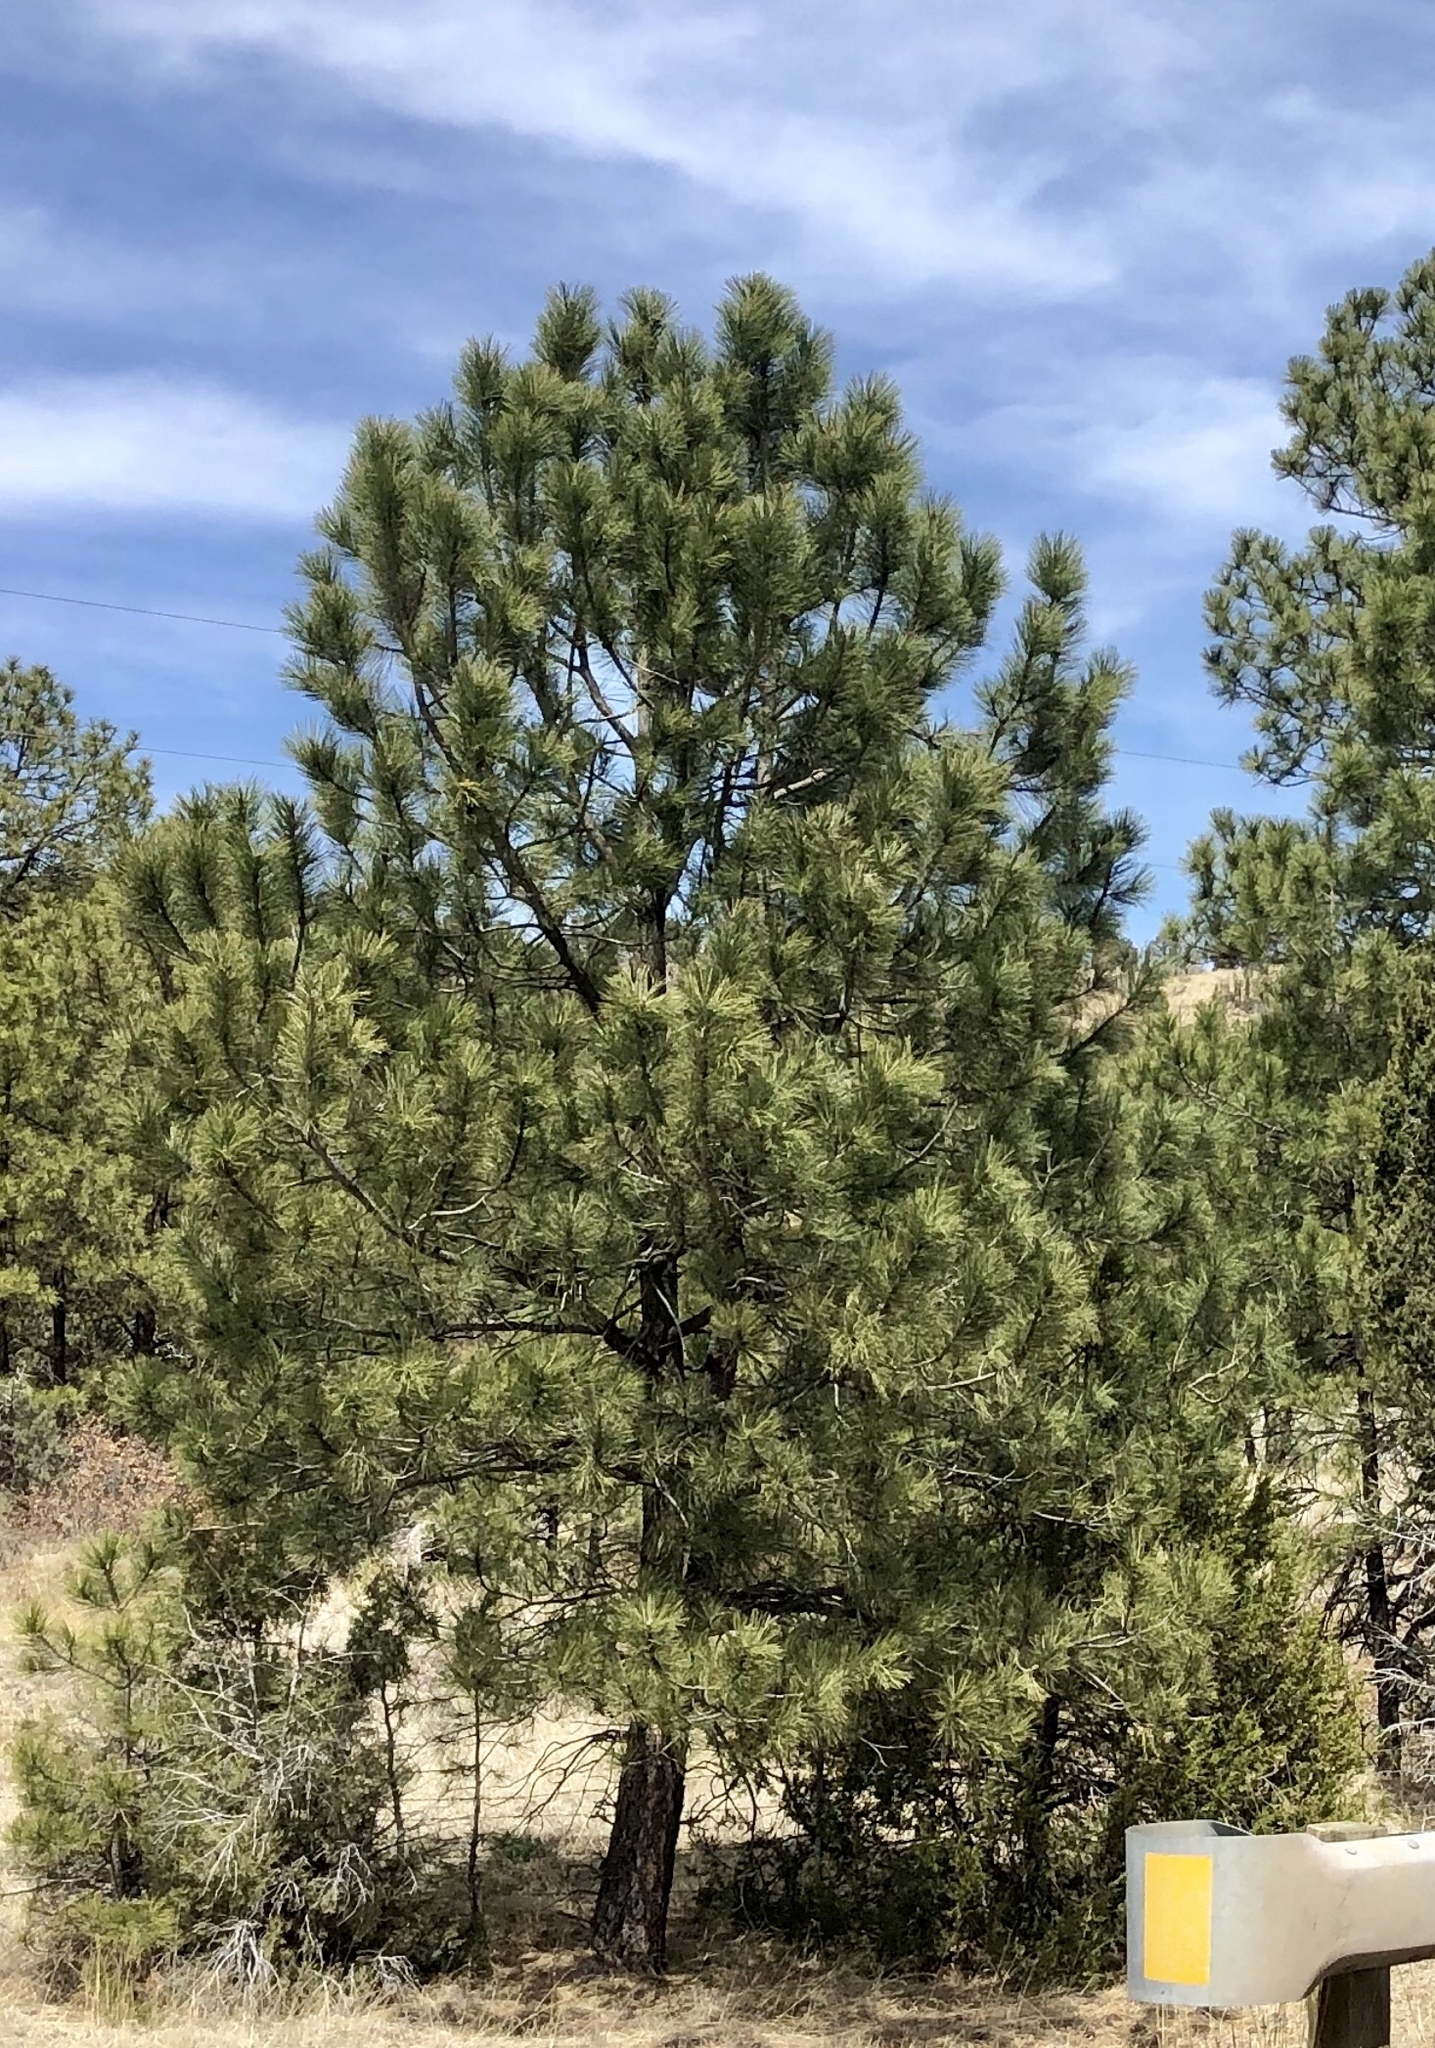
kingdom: Plantae
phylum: Tracheophyta
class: Pinopsida
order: Pinales
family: Pinaceae
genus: Pinus
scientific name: Pinus ponderosa
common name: Western yellow-pine
